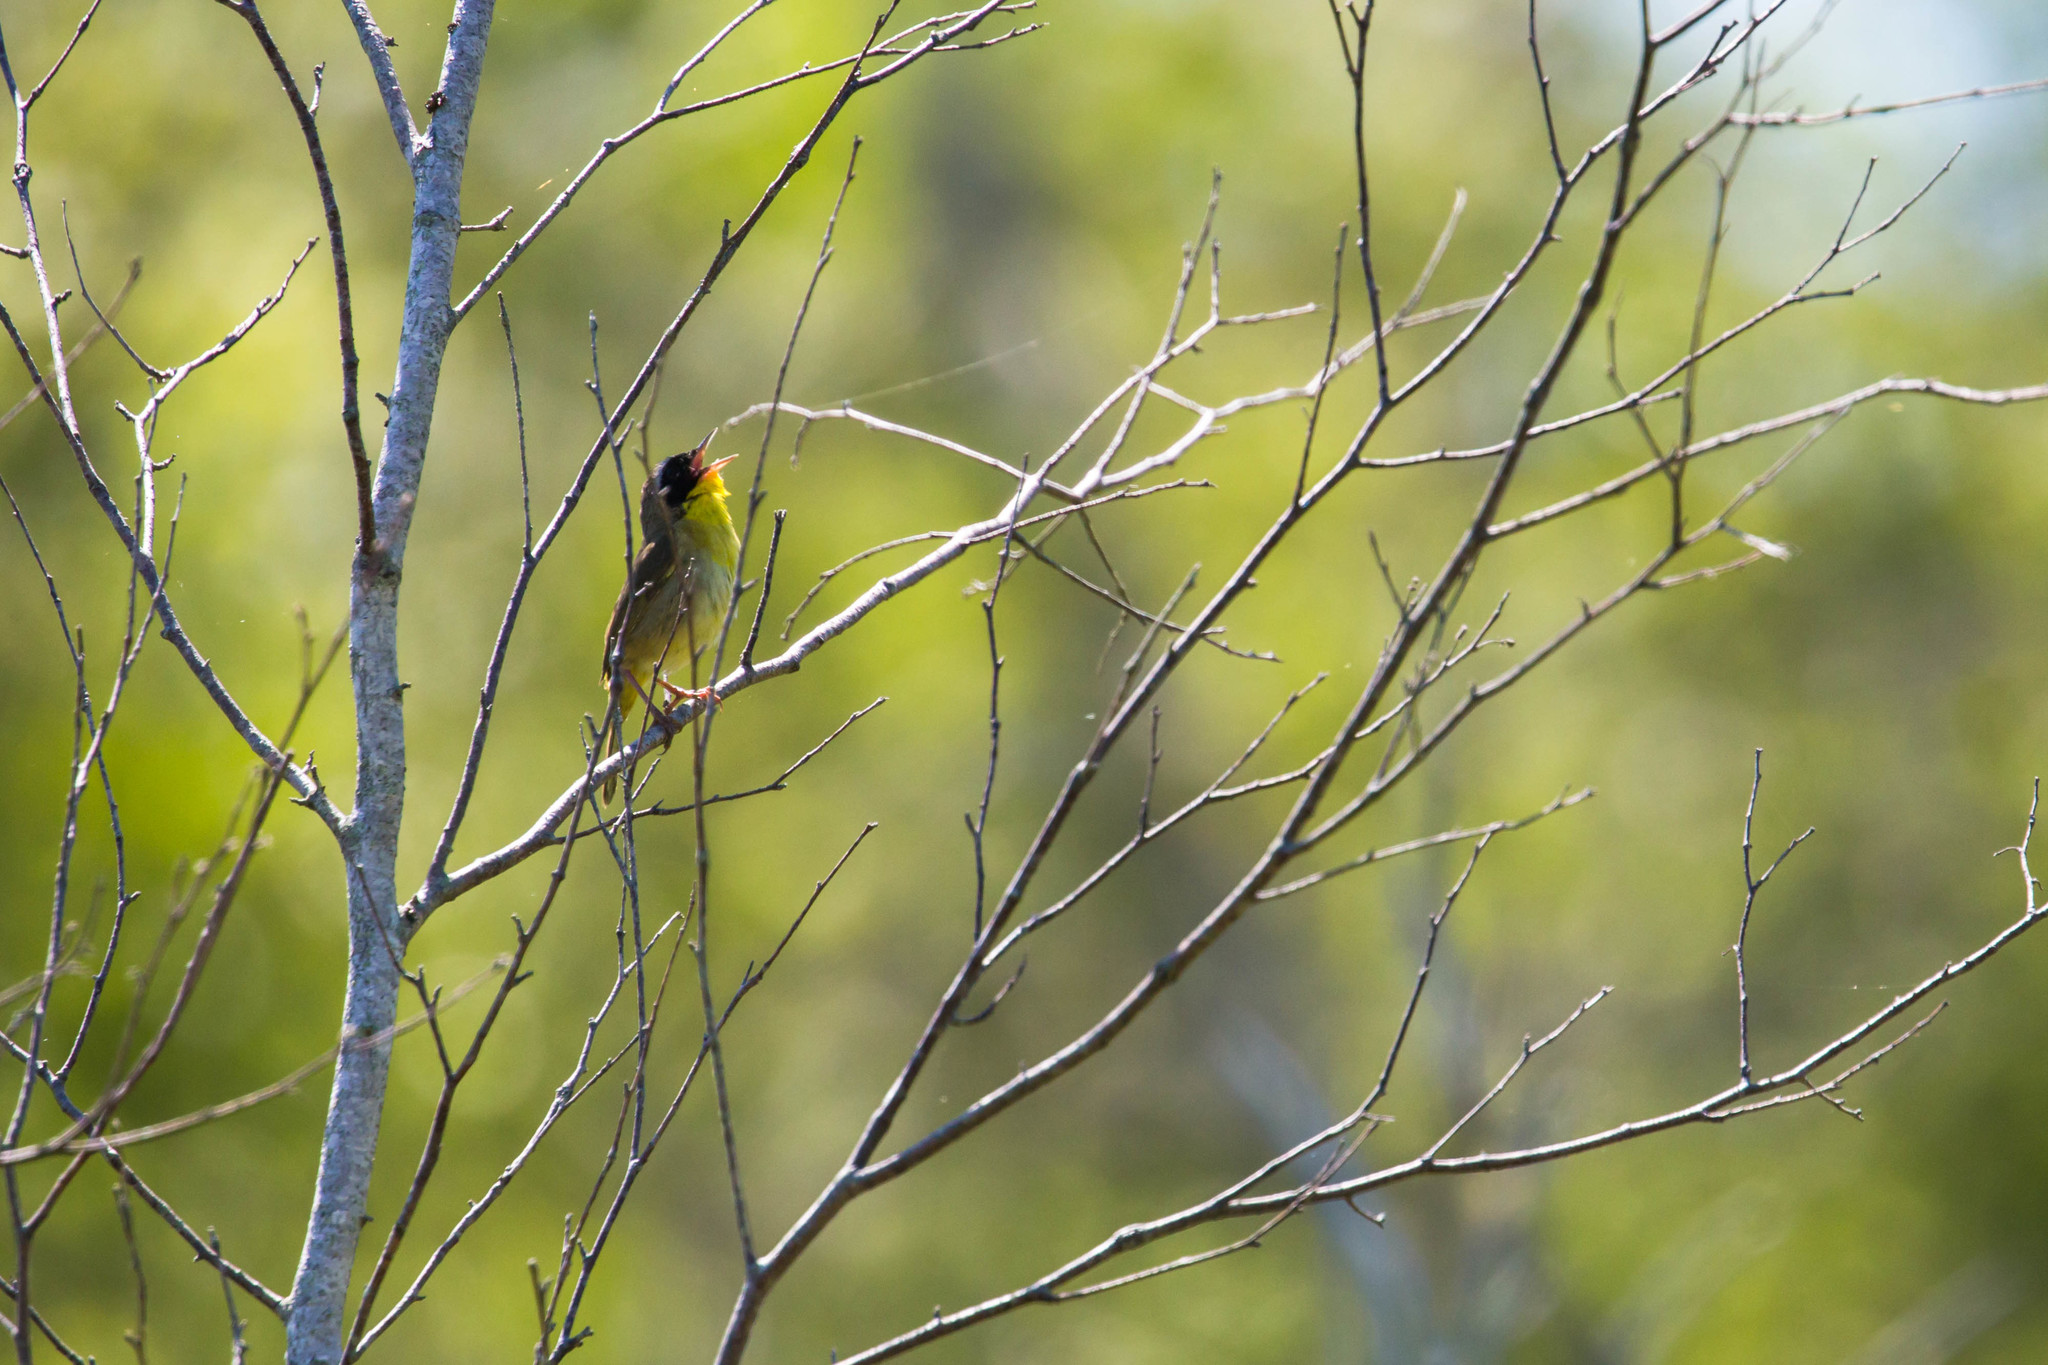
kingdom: Animalia
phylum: Chordata
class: Aves
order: Passeriformes
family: Parulidae
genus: Geothlypis
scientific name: Geothlypis trichas
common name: Common yellowthroat
